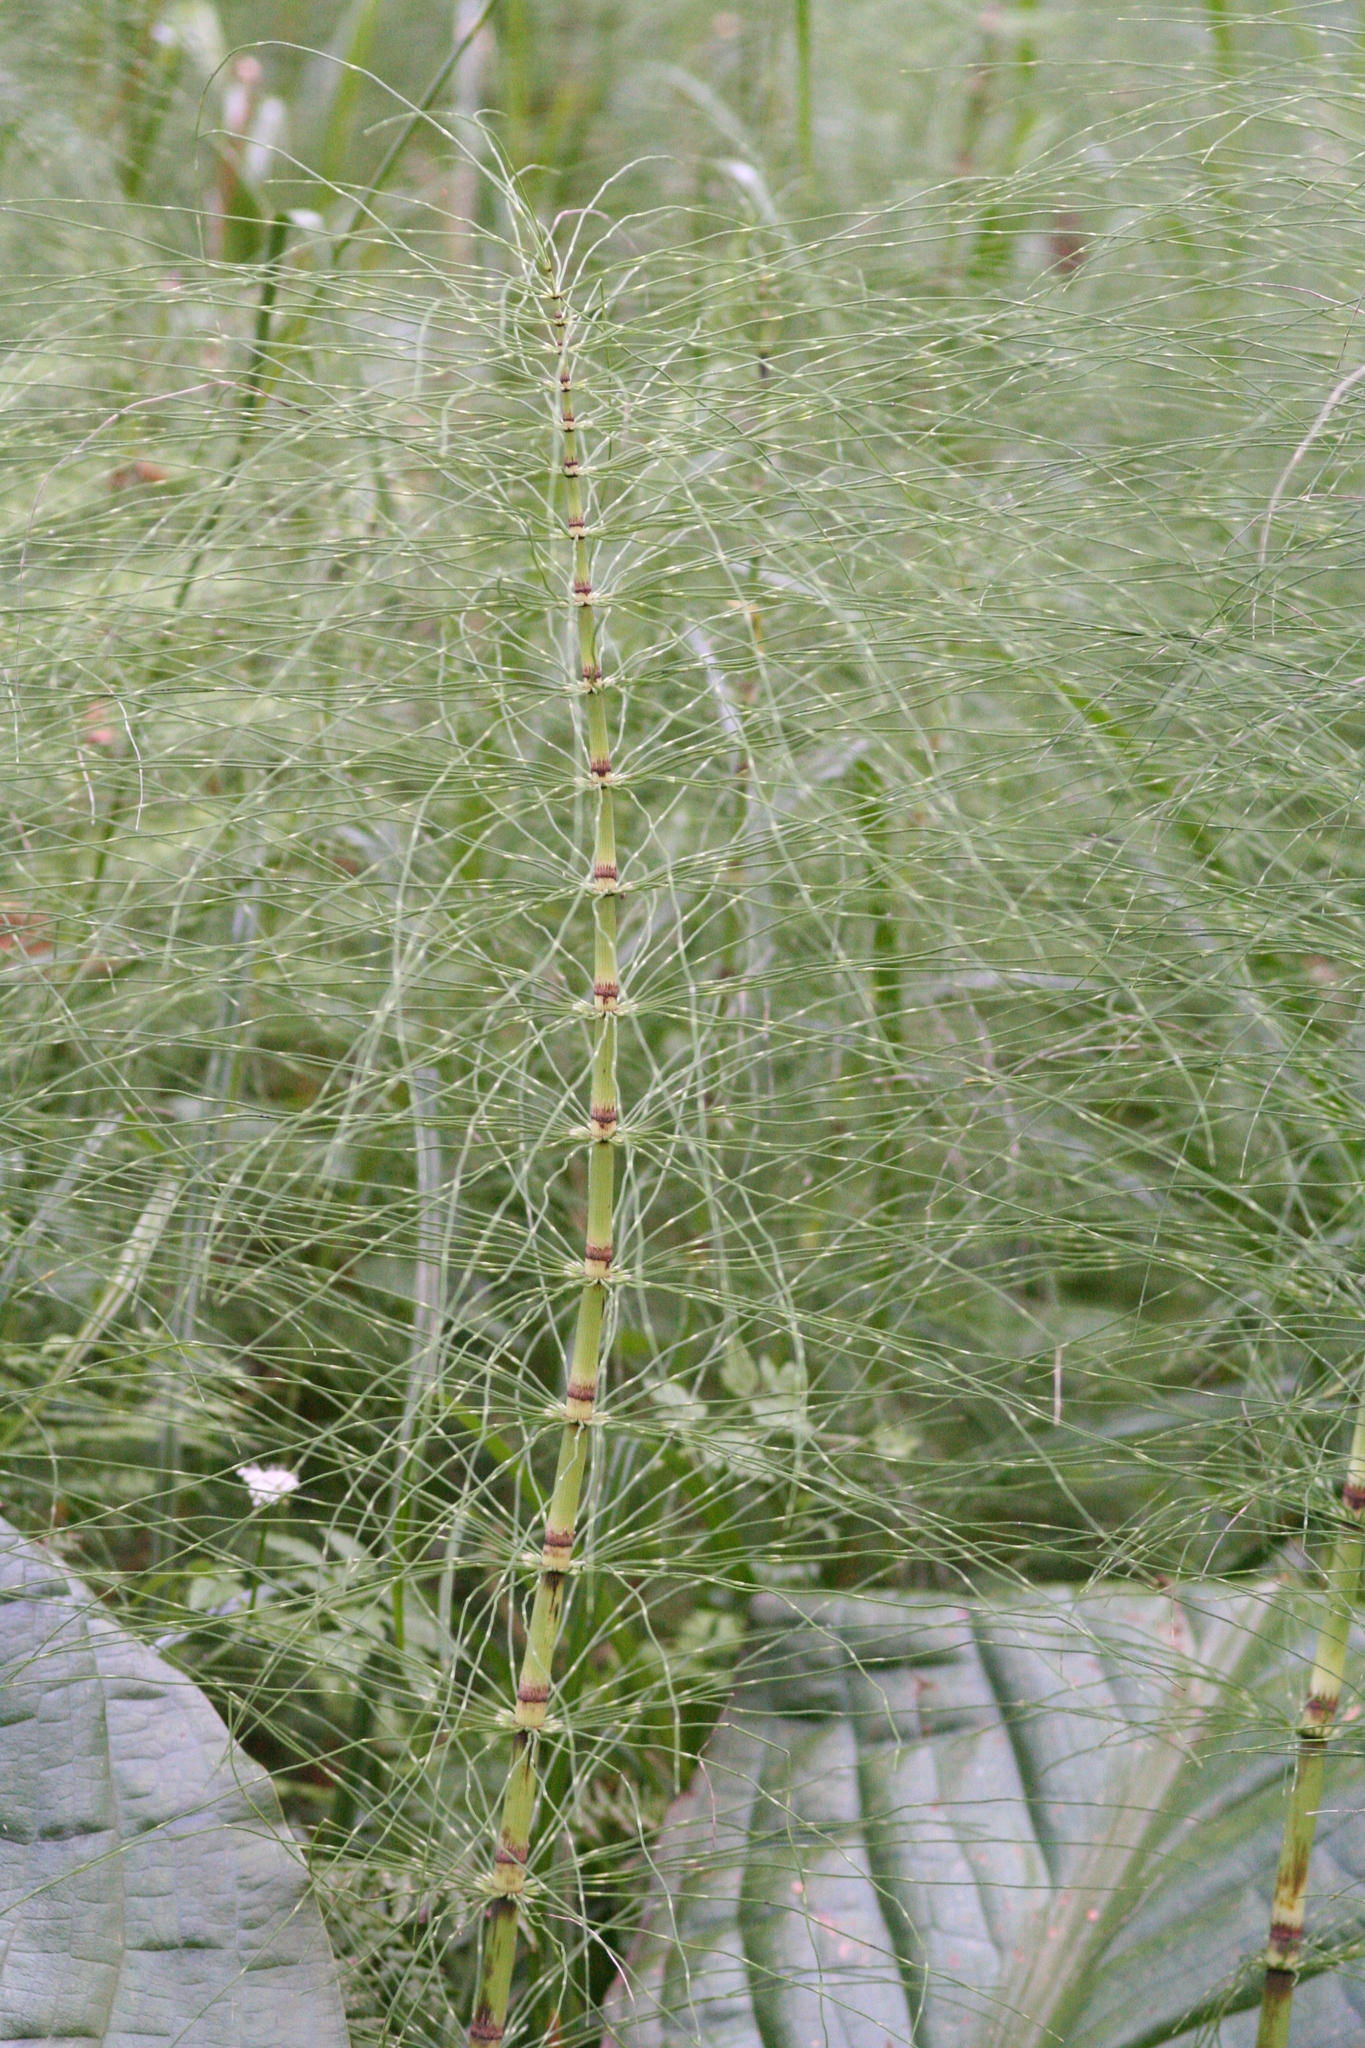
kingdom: Plantae
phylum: Tracheophyta
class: Polypodiopsida
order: Equisetales
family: Equisetaceae
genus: Equisetum
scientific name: Equisetum telmateia
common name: Great horsetail
